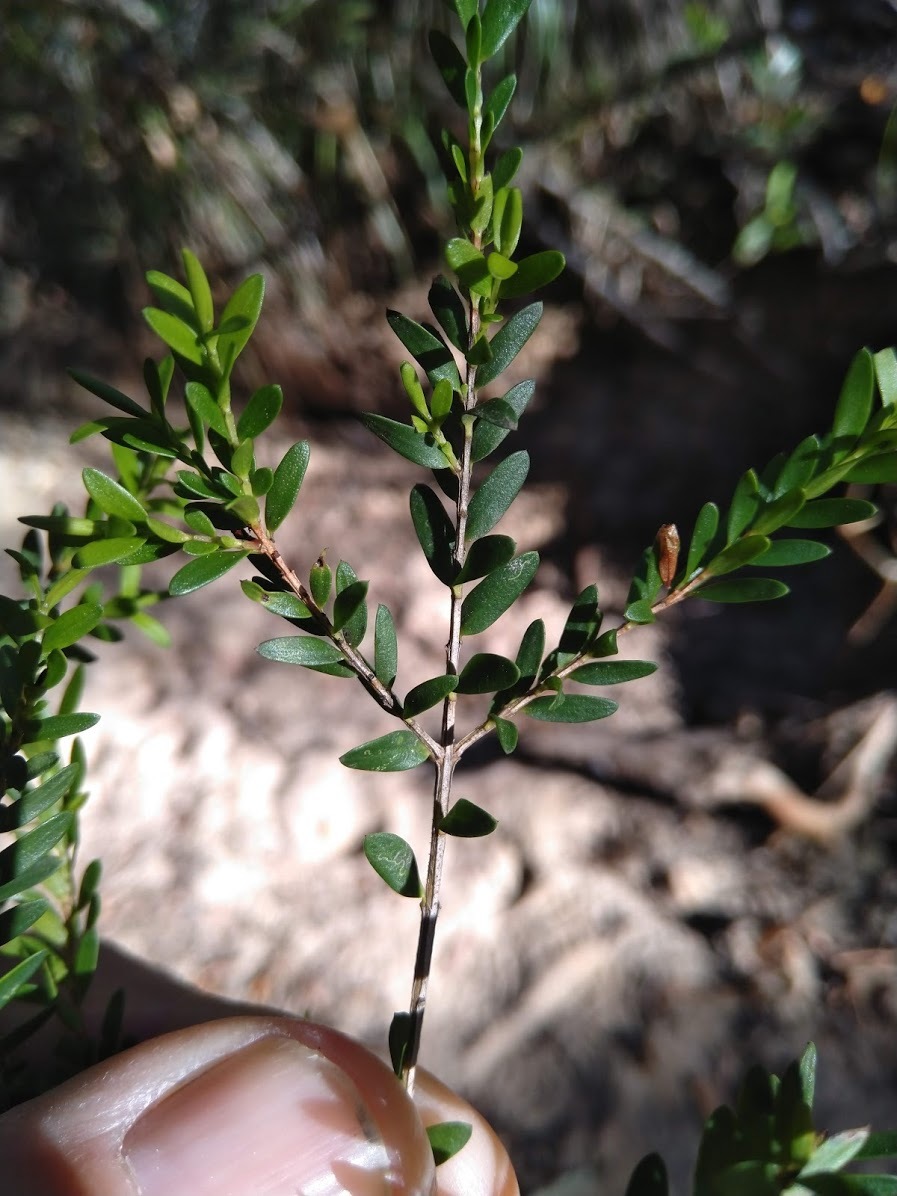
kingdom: Plantae
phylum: Tracheophyta
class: Magnoliopsida
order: Myrtales
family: Myrtaceae
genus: Sannantha
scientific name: Sannantha bidwillii
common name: Tall baeckea
